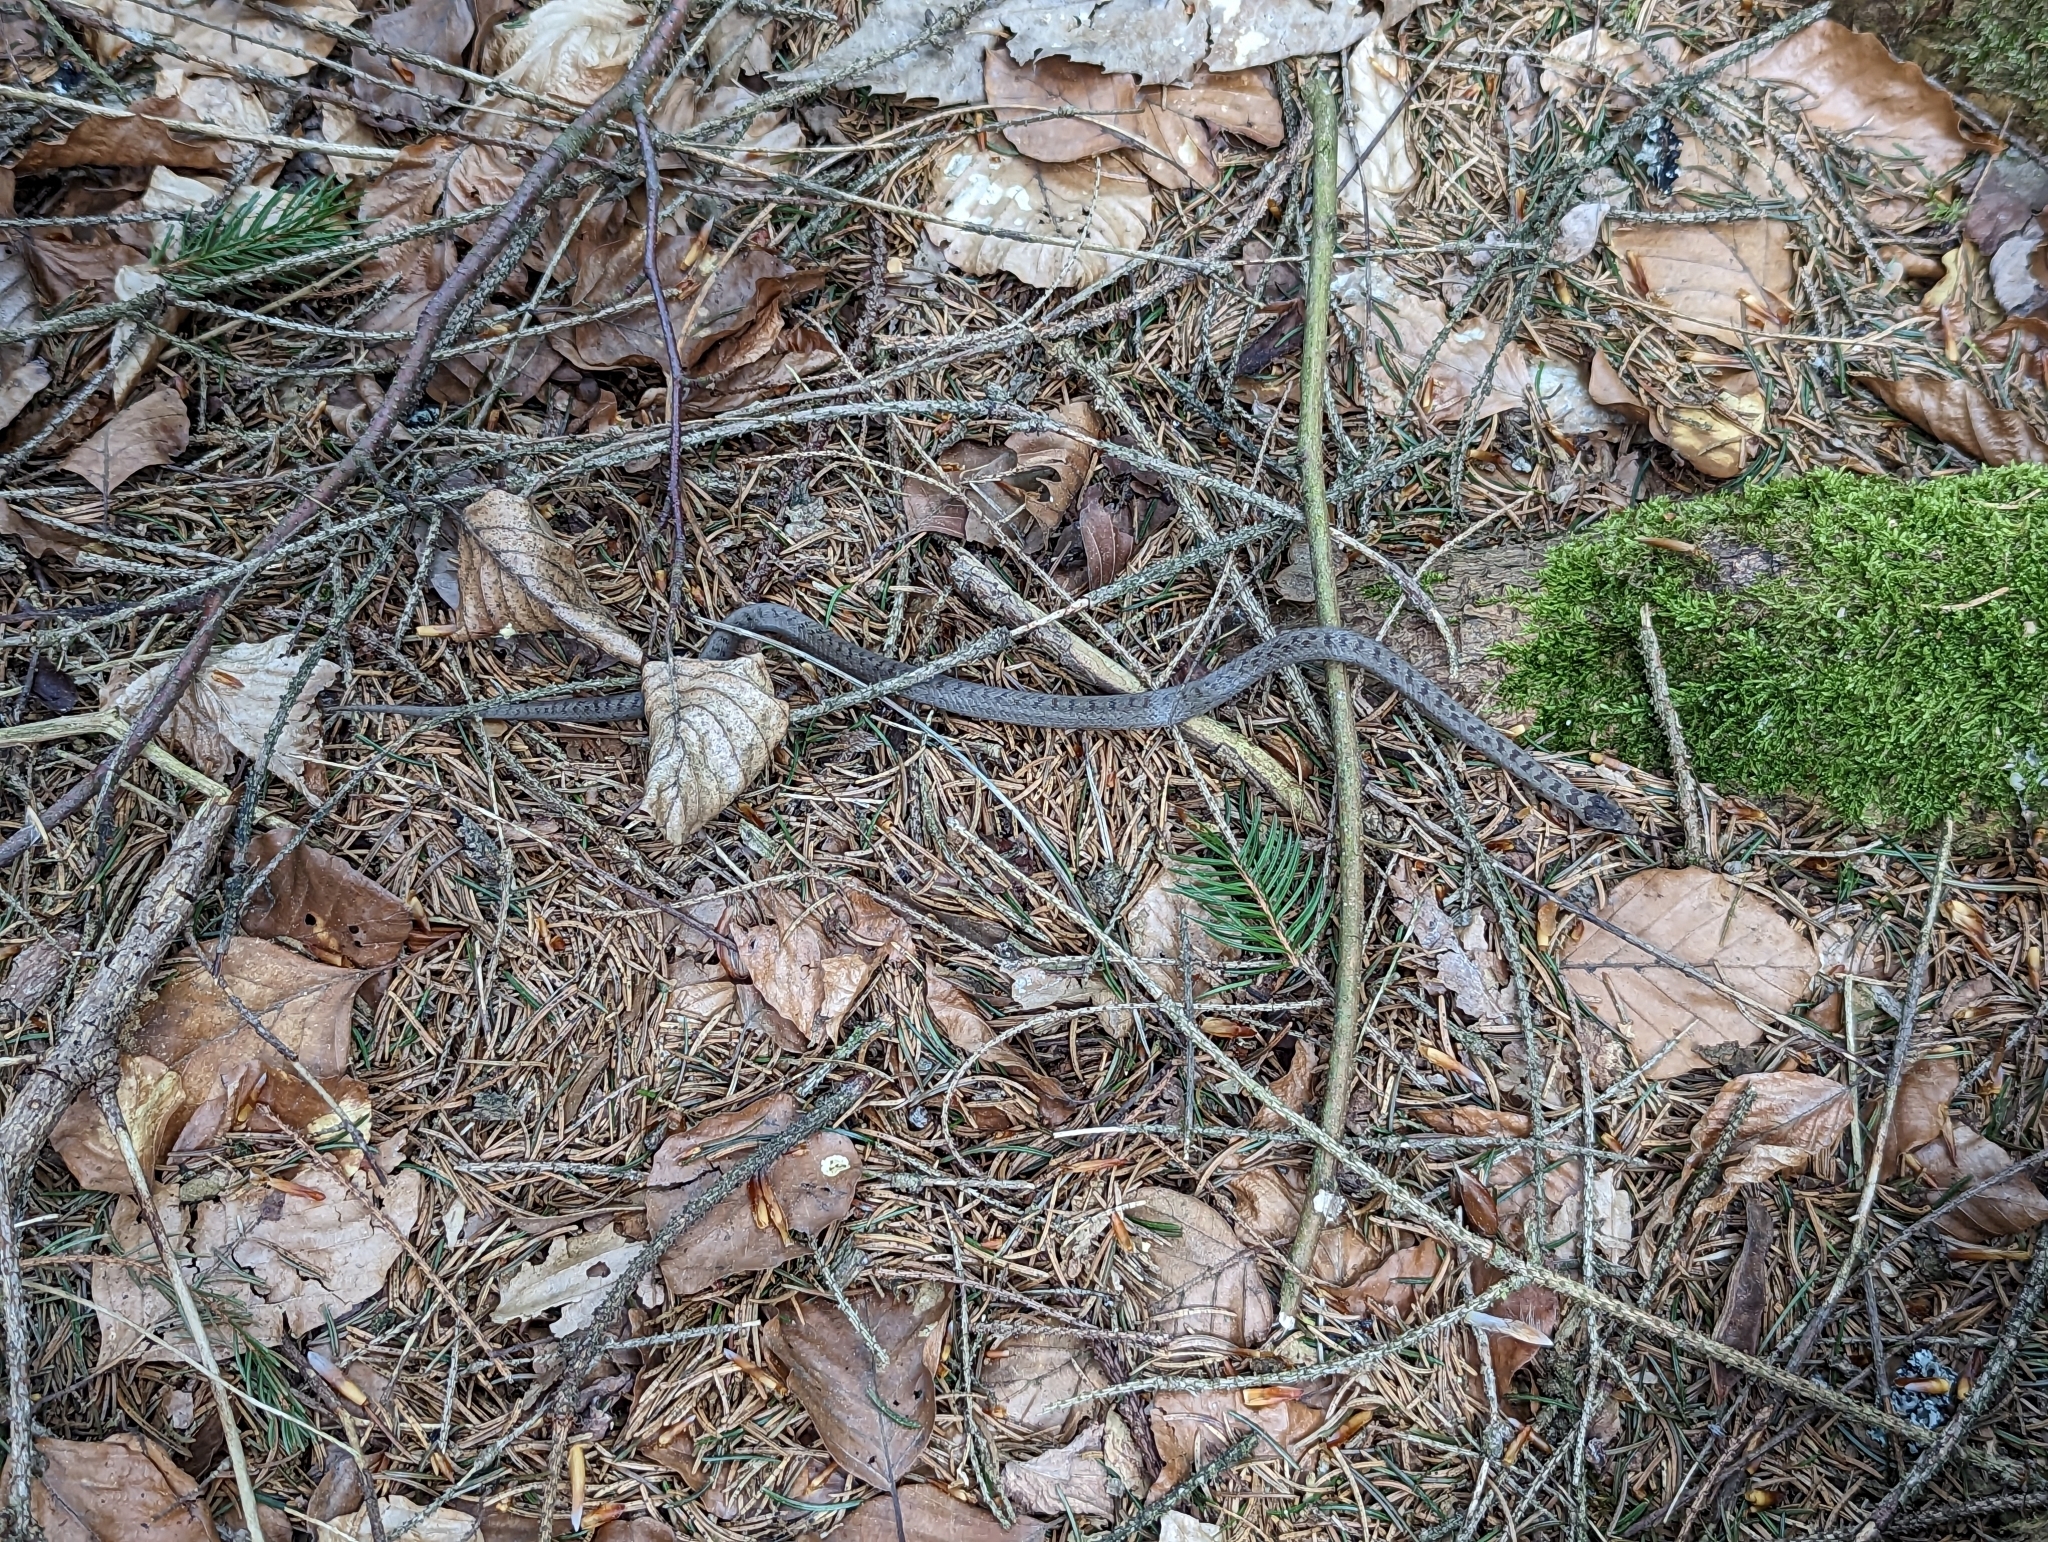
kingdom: Animalia
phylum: Chordata
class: Squamata
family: Colubridae
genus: Coronella
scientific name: Coronella austriaca
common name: Smooth snake
